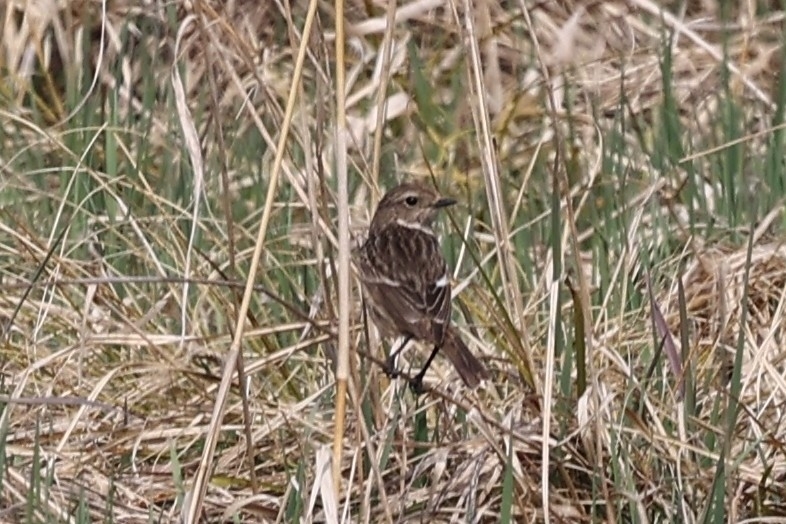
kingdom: Animalia
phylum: Chordata
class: Aves
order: Passeriformes
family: Muscicapidae
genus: Saxicola
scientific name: Saxicola rubicola
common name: European stonechat
